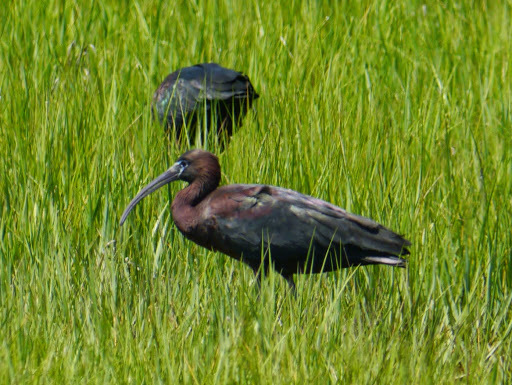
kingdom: Animalia
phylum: Chordata
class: Aves
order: Pelecaniformes
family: Threskiornithidae
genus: Plegadis
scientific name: Plegadis falcinellus
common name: Glossy ibis
